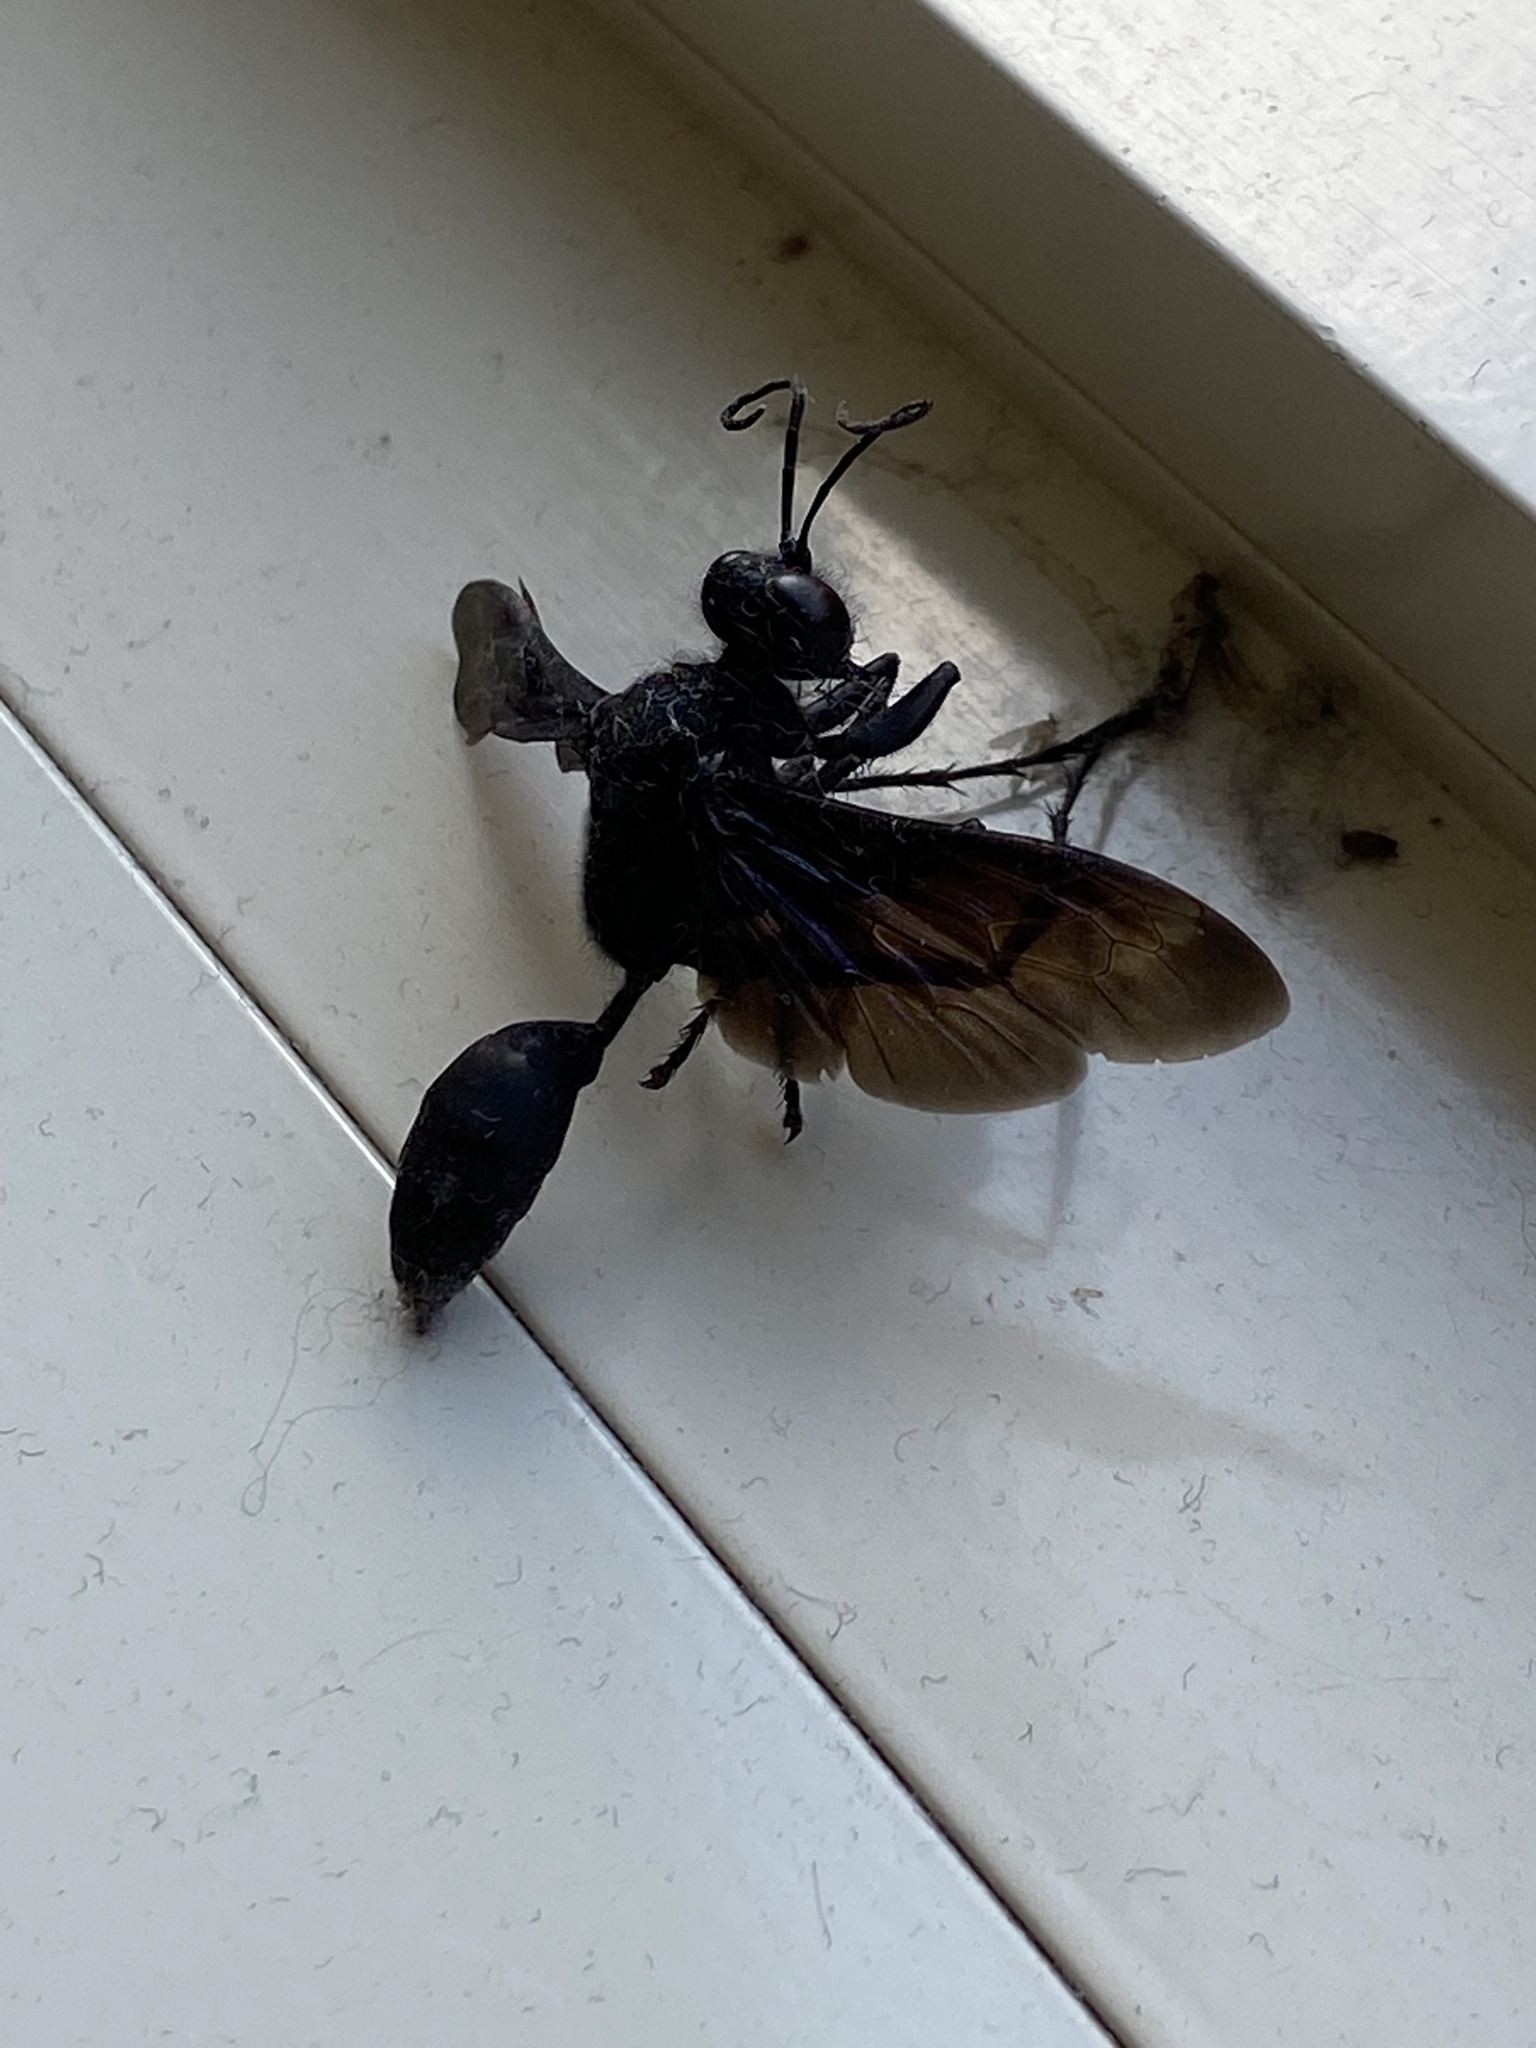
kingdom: Animalia
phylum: Arthropoda
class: Insecta
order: Hymenoptera
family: Sphecidae
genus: Sphex
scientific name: Sphex pensylvanicus
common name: Great black digger wasp
